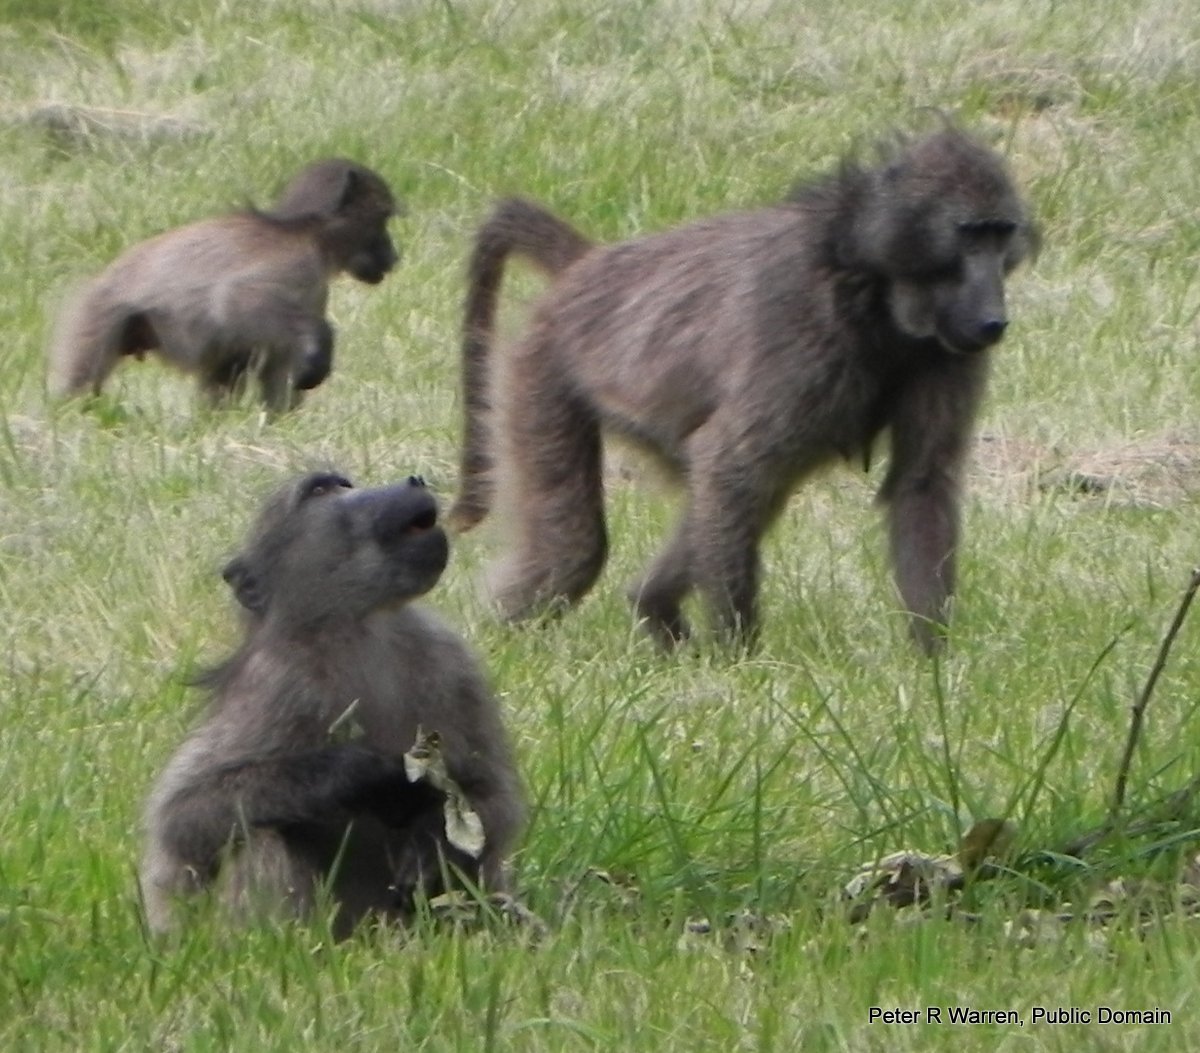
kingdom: Animalia
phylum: Chordata
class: Mammalia
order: Primates
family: Cercopithecidae
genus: Papio
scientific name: Papio ursinus
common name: Chacma baboon
